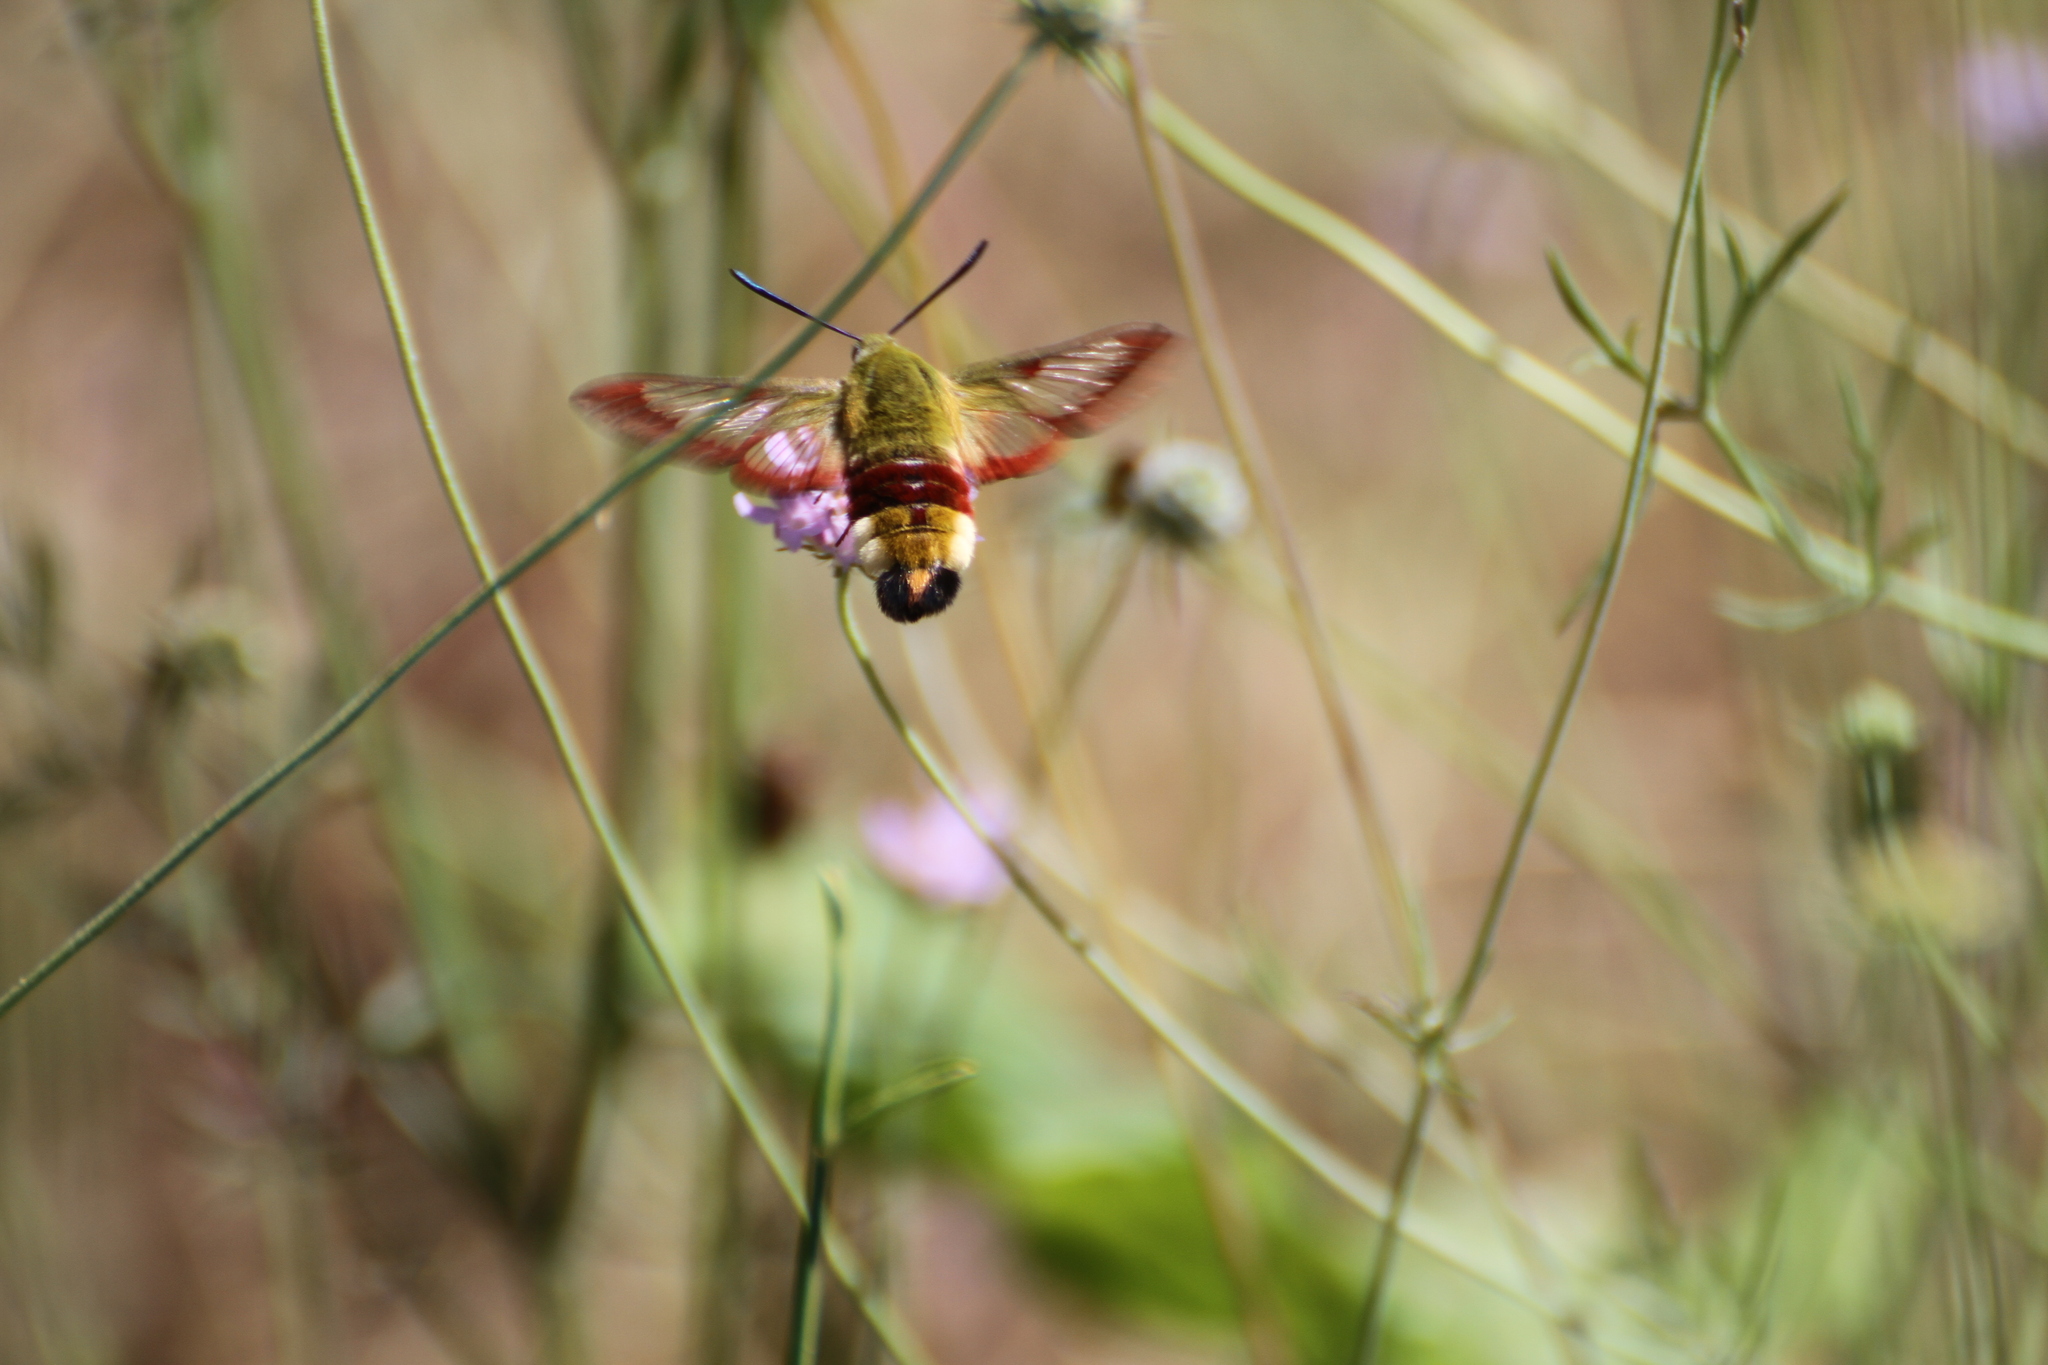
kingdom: Animalia
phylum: Arthropoda
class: Insecta
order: Lepidoptera
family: Sphingidae
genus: Hemaris
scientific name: Hemaris fuciformis
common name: Broad-bordered bee hawk-moth
